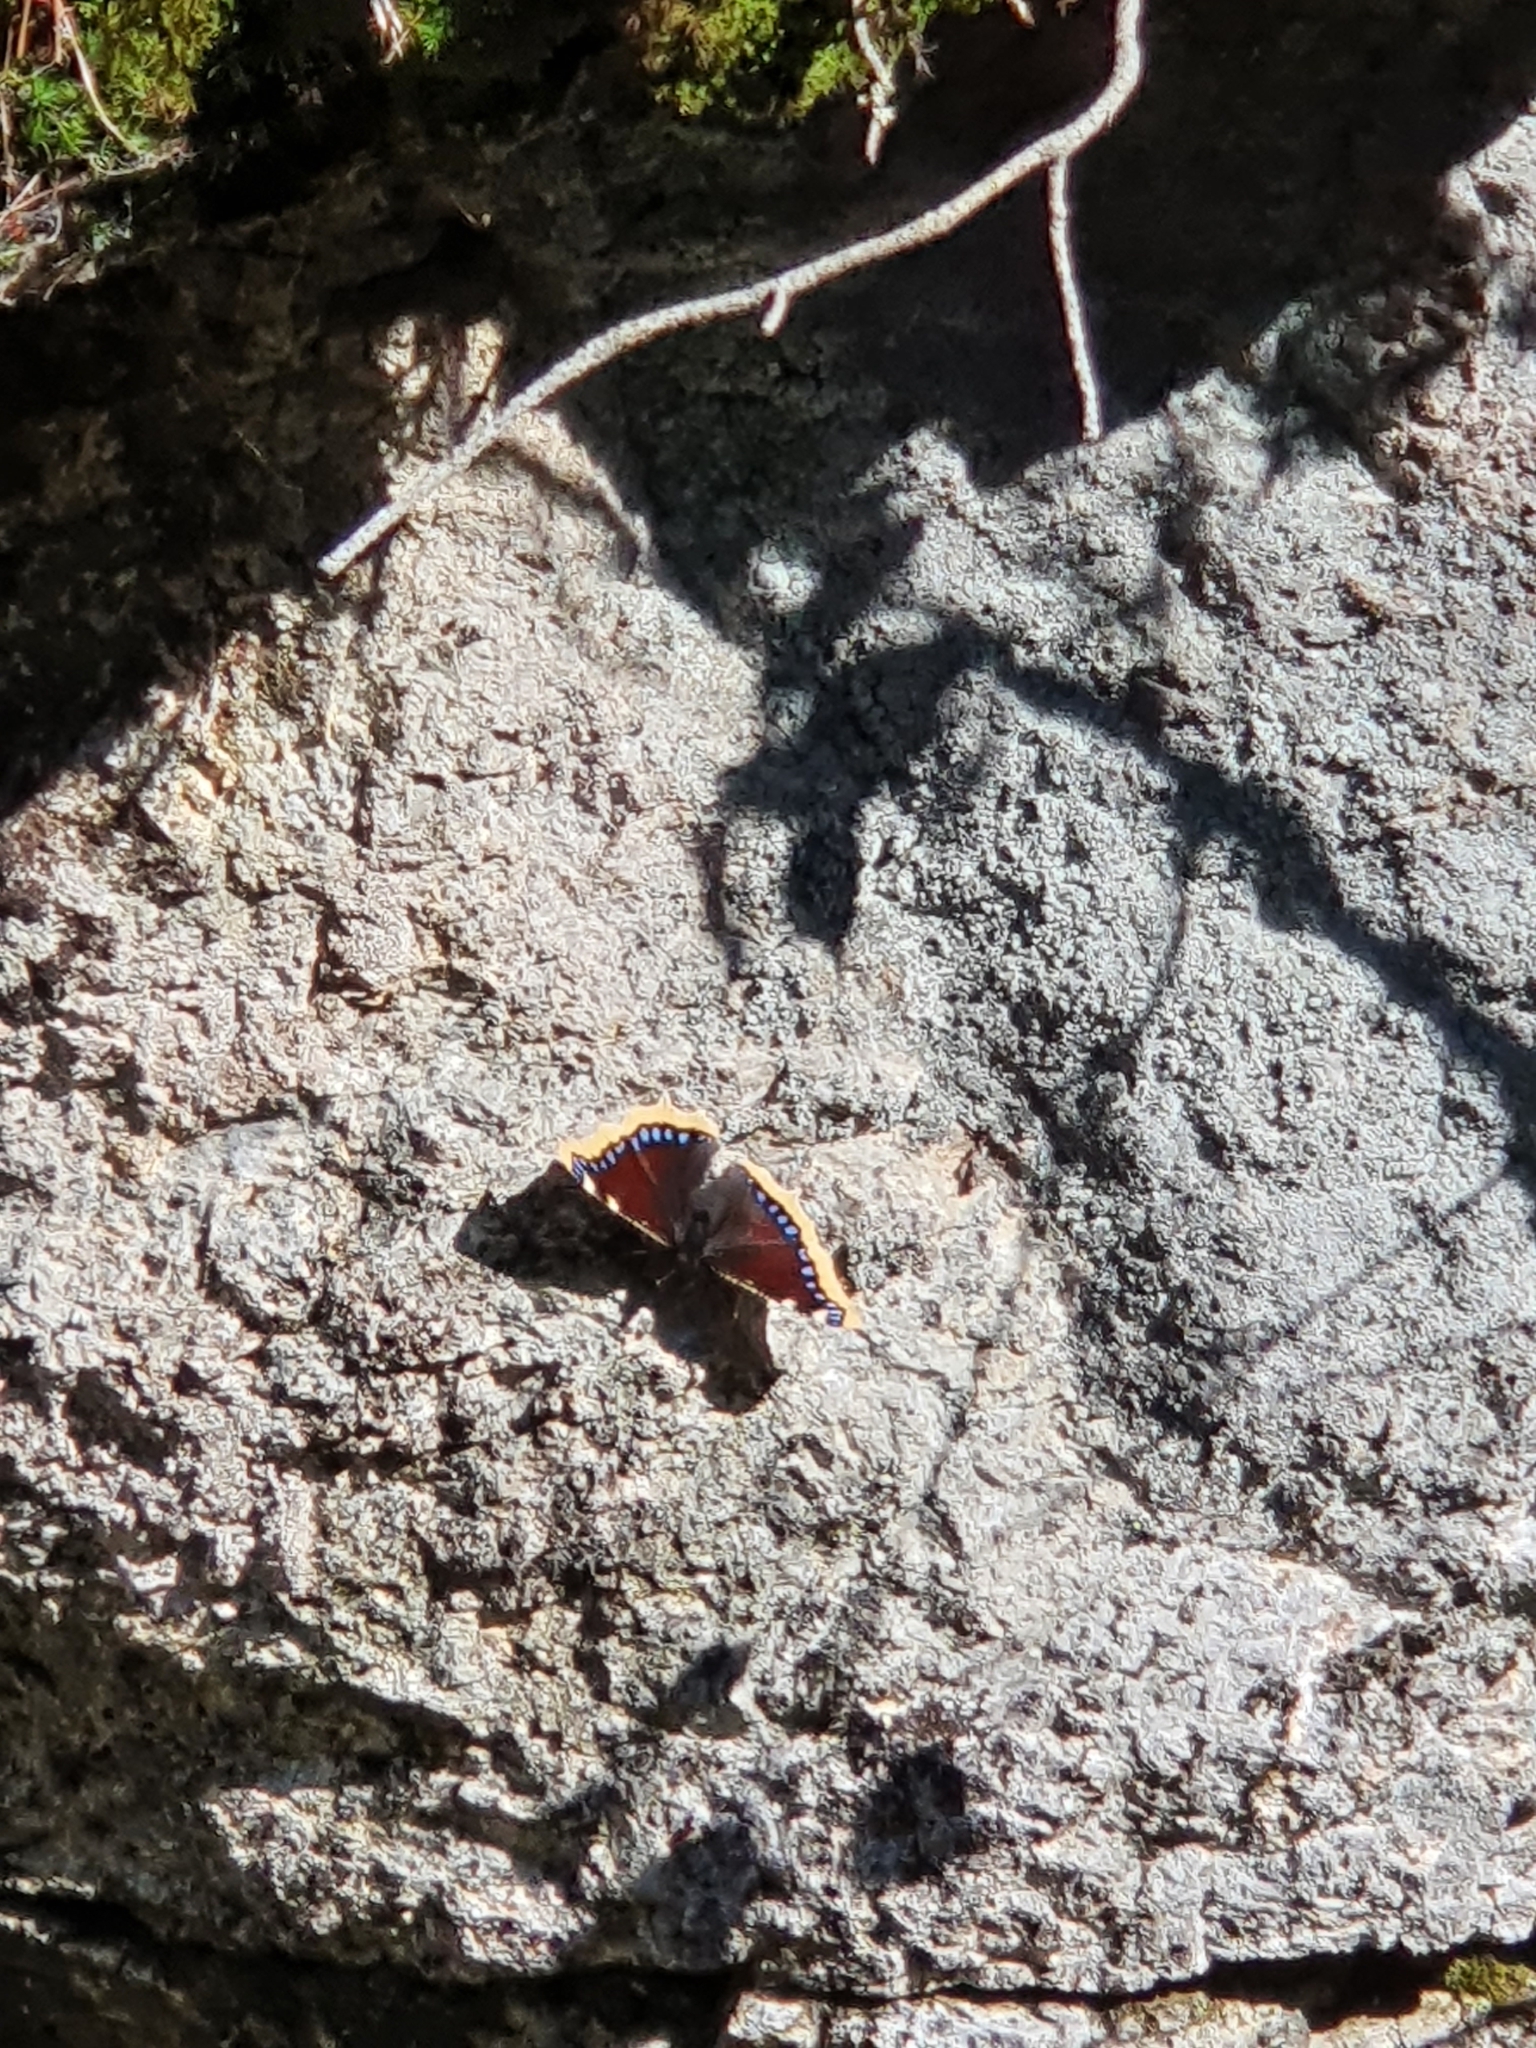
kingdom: Animalia
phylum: Arthropoda
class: Insecta
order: Lepidoptera
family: Nymphalidae
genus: Nymphalis
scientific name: Nymphalis antiopa
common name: Camberwell beauty
